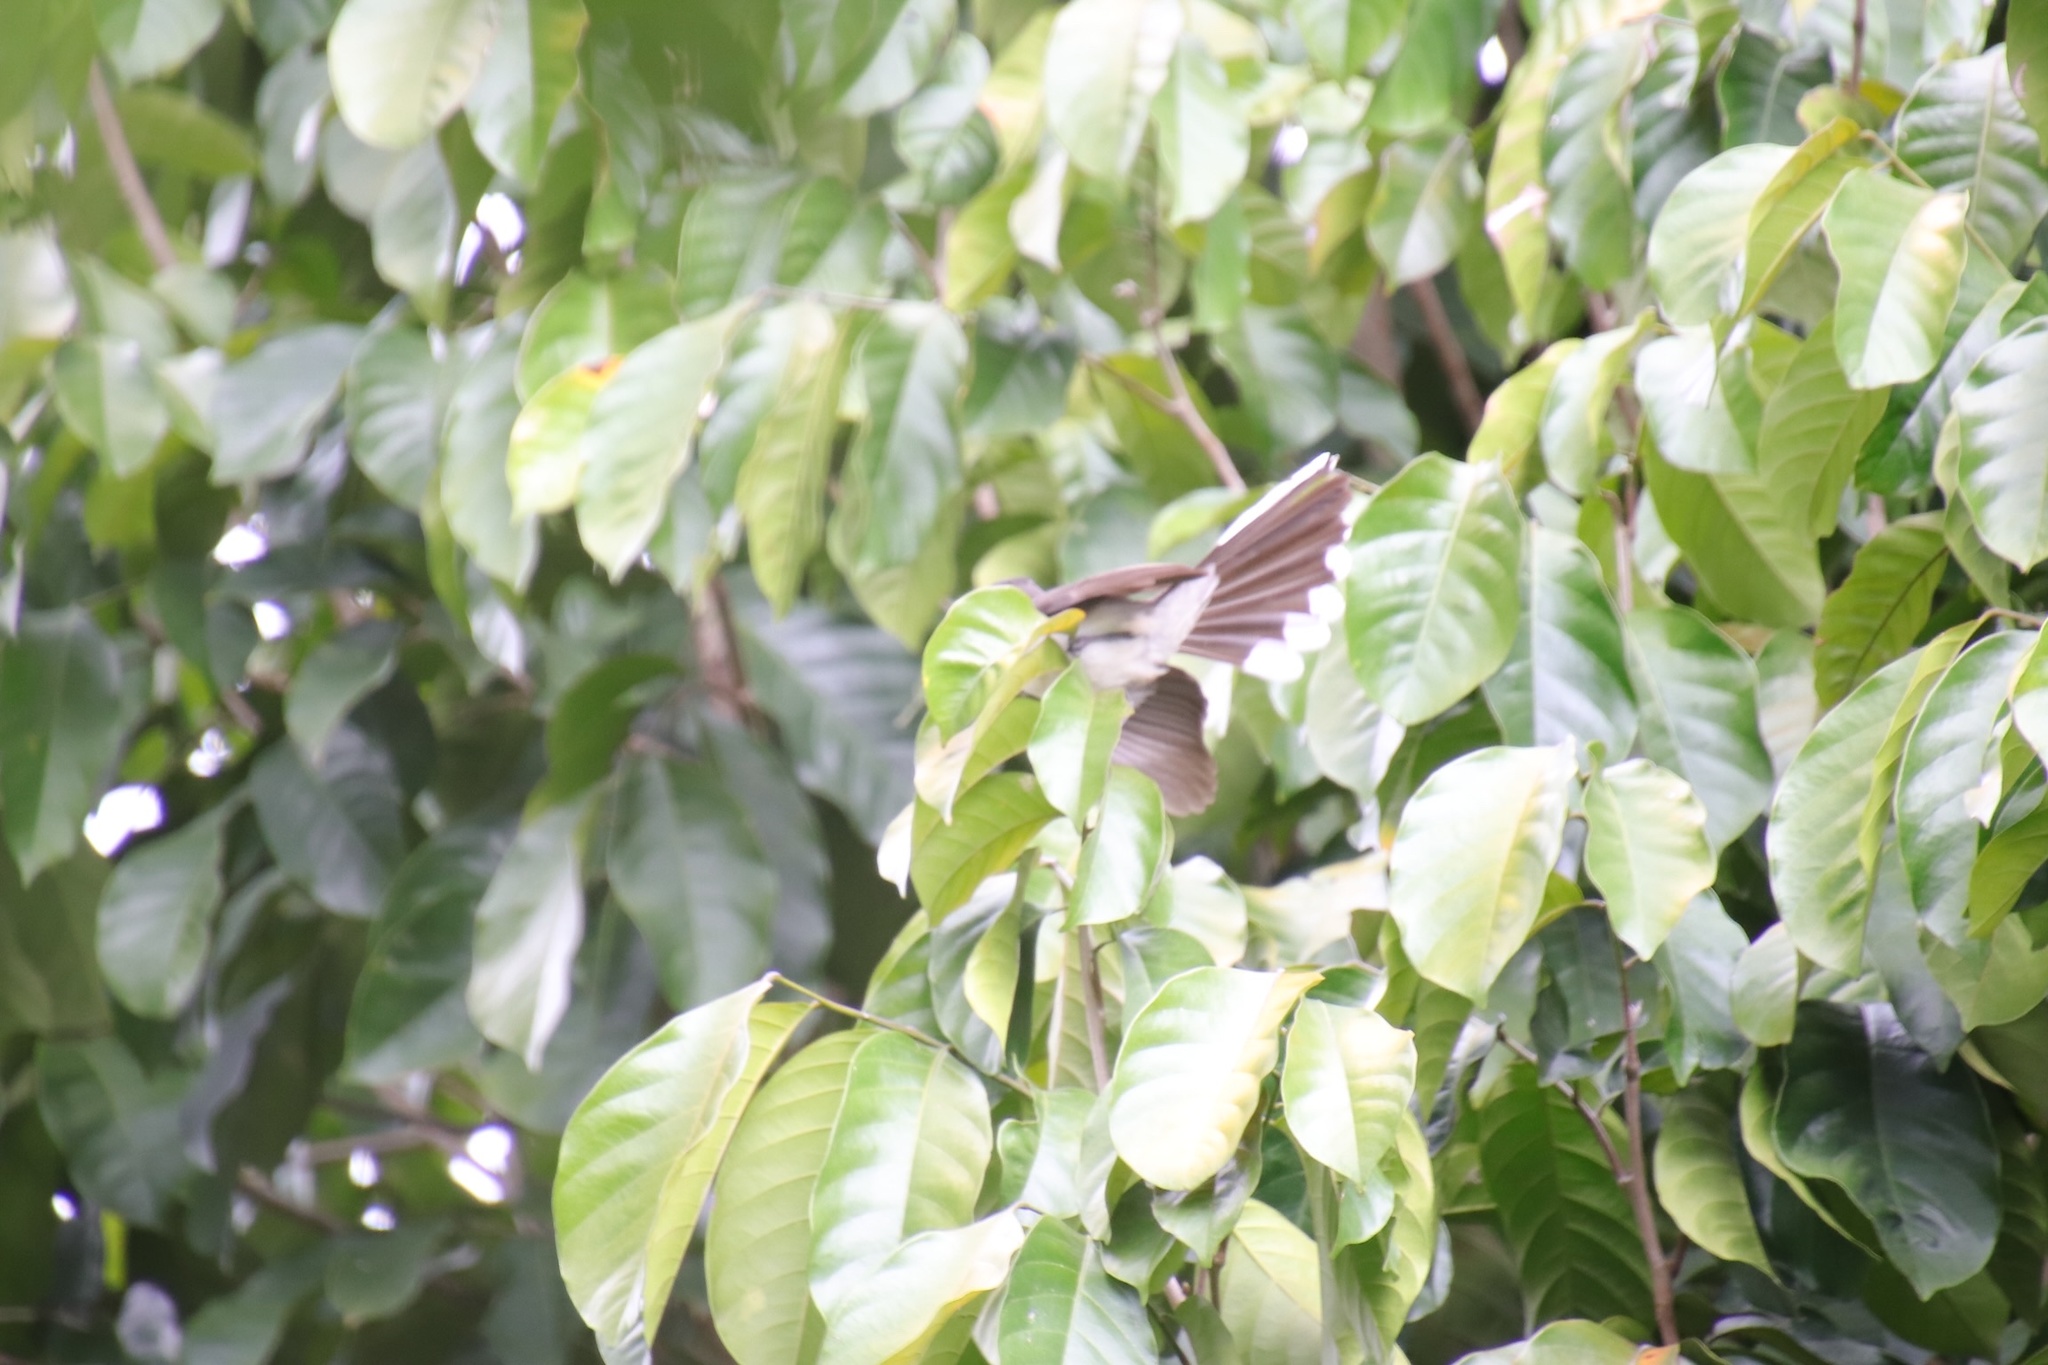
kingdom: Animalia
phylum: Chordata
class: Aves
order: Passeriformes
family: Rhipiduridae
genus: Rhipidura
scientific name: Rhipidura nigritorquis
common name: Philippine pied fantail
